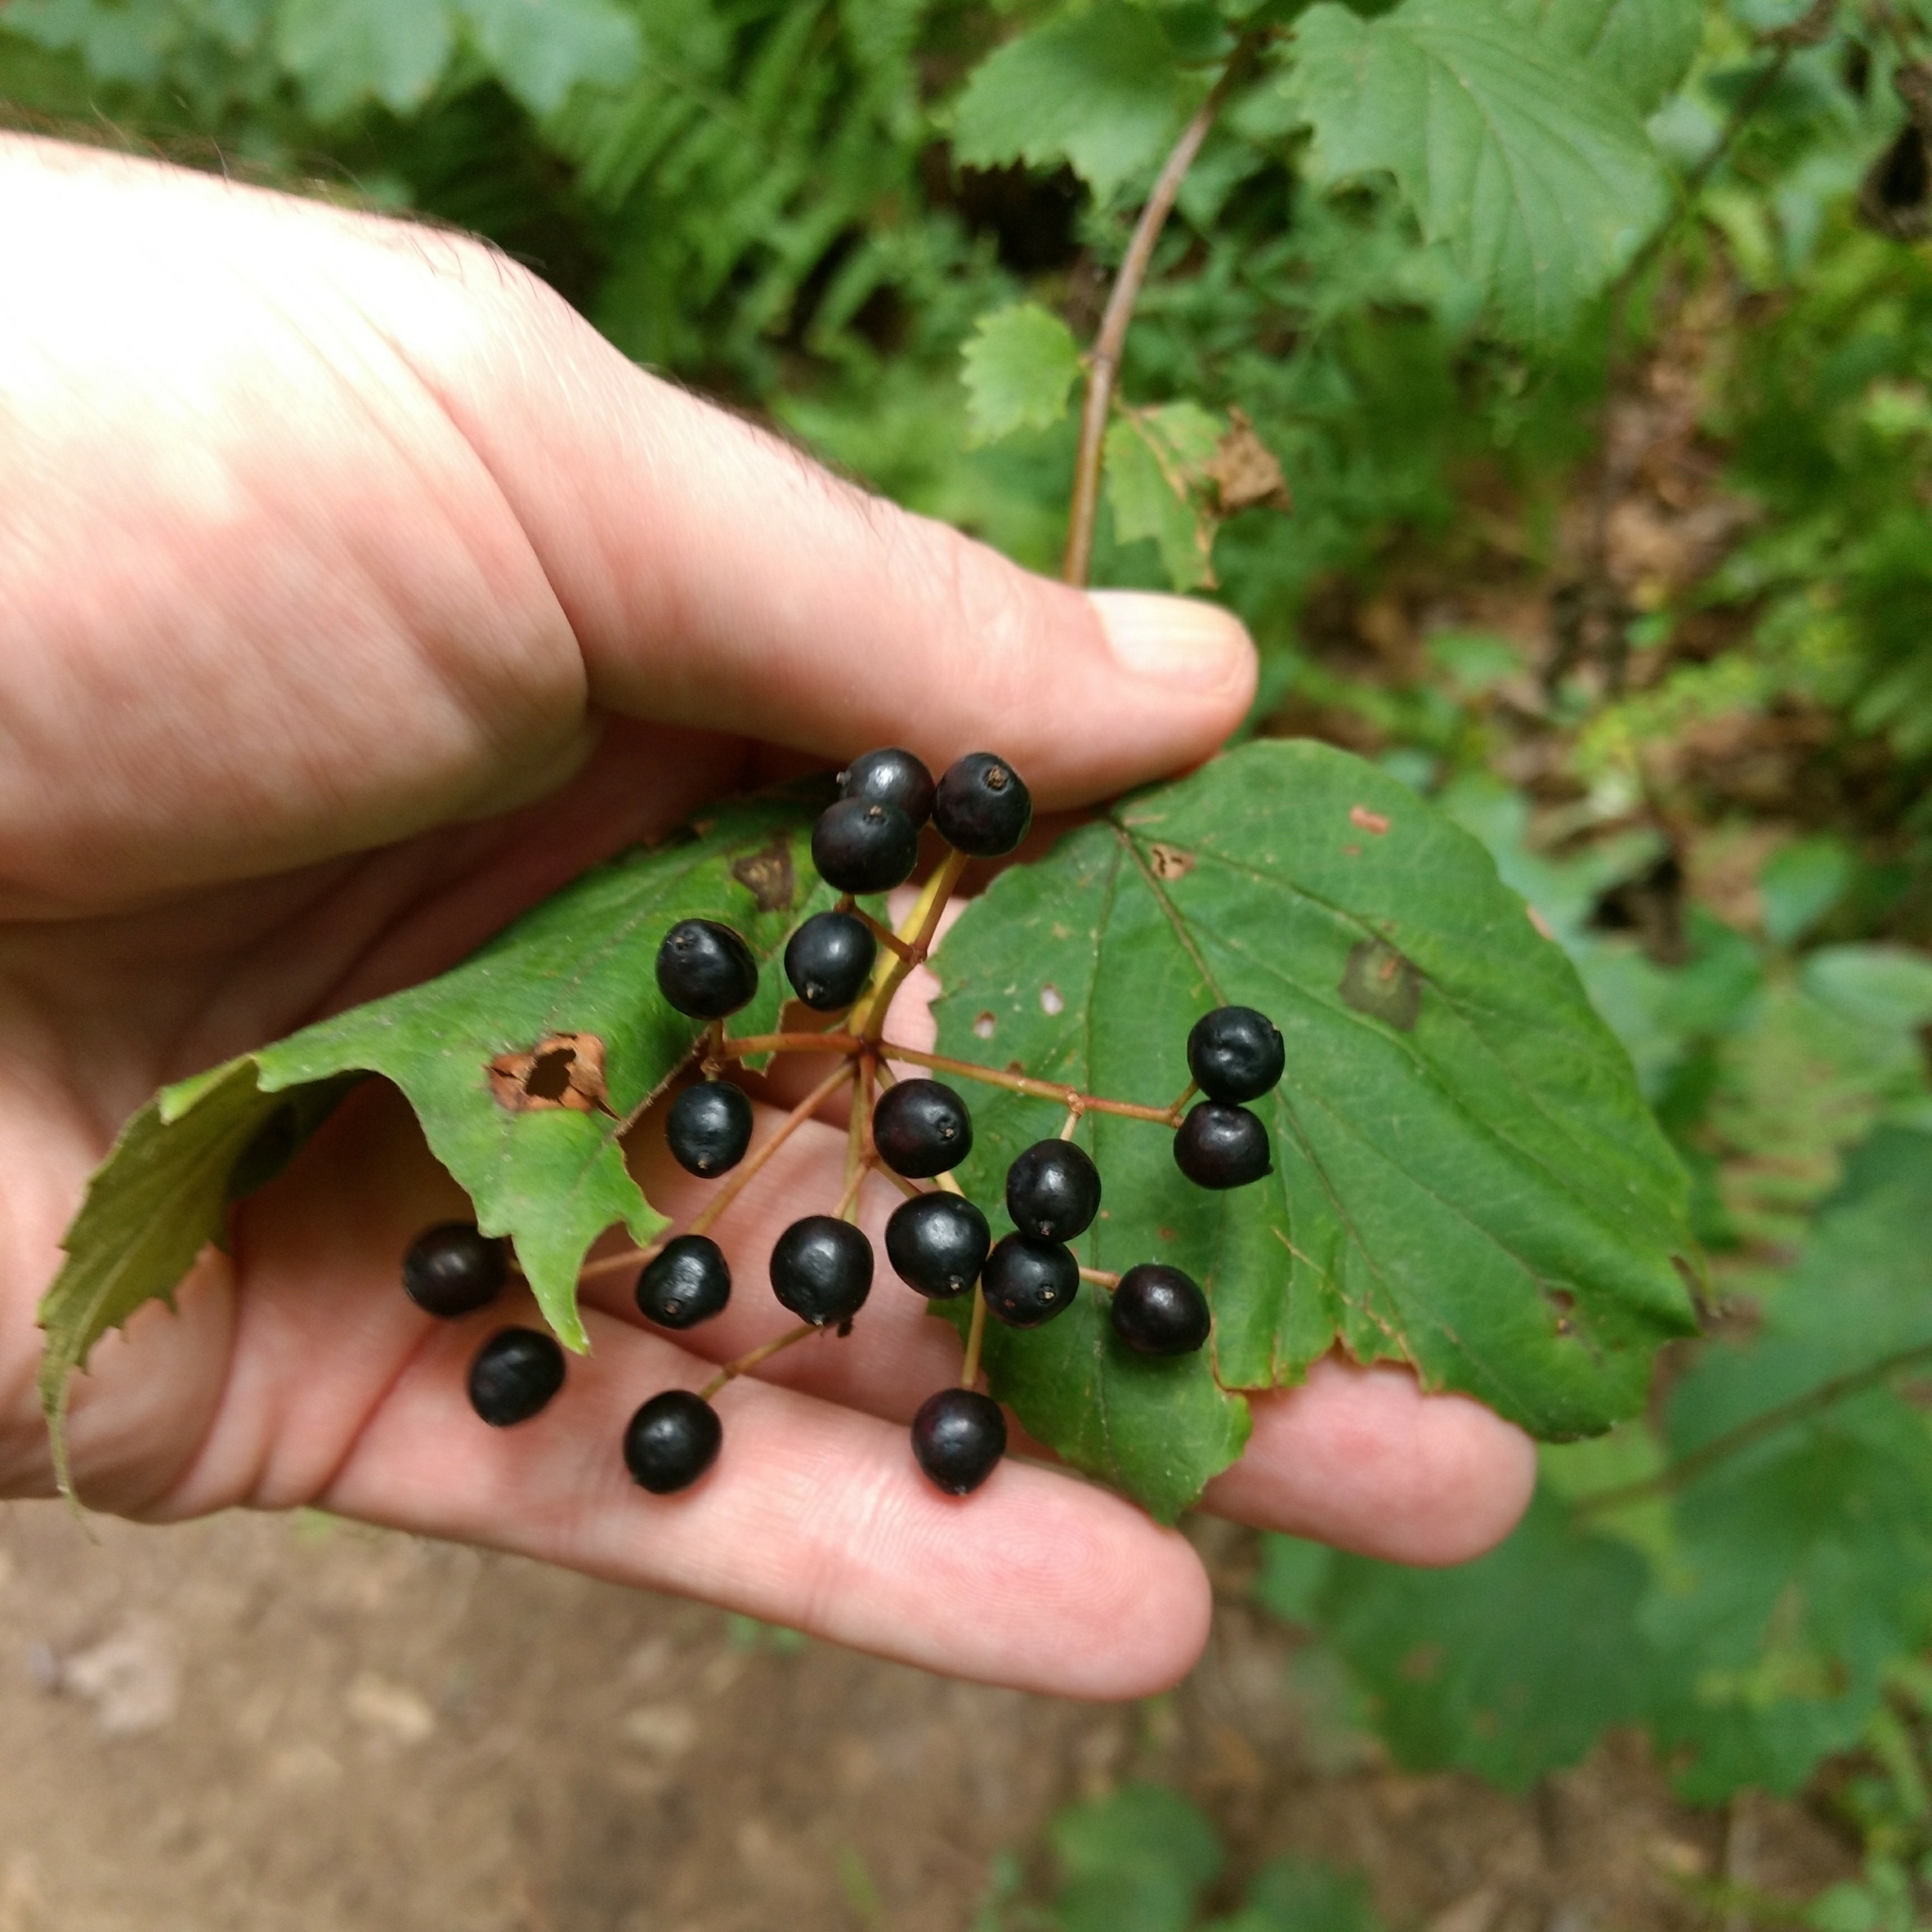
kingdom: Plantae
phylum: Tracheophyta
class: Magnoliopsida
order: Dipsacales
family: Viburnaceae
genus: Viburnum
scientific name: Viburnum acerifolium
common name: Dockmackie
